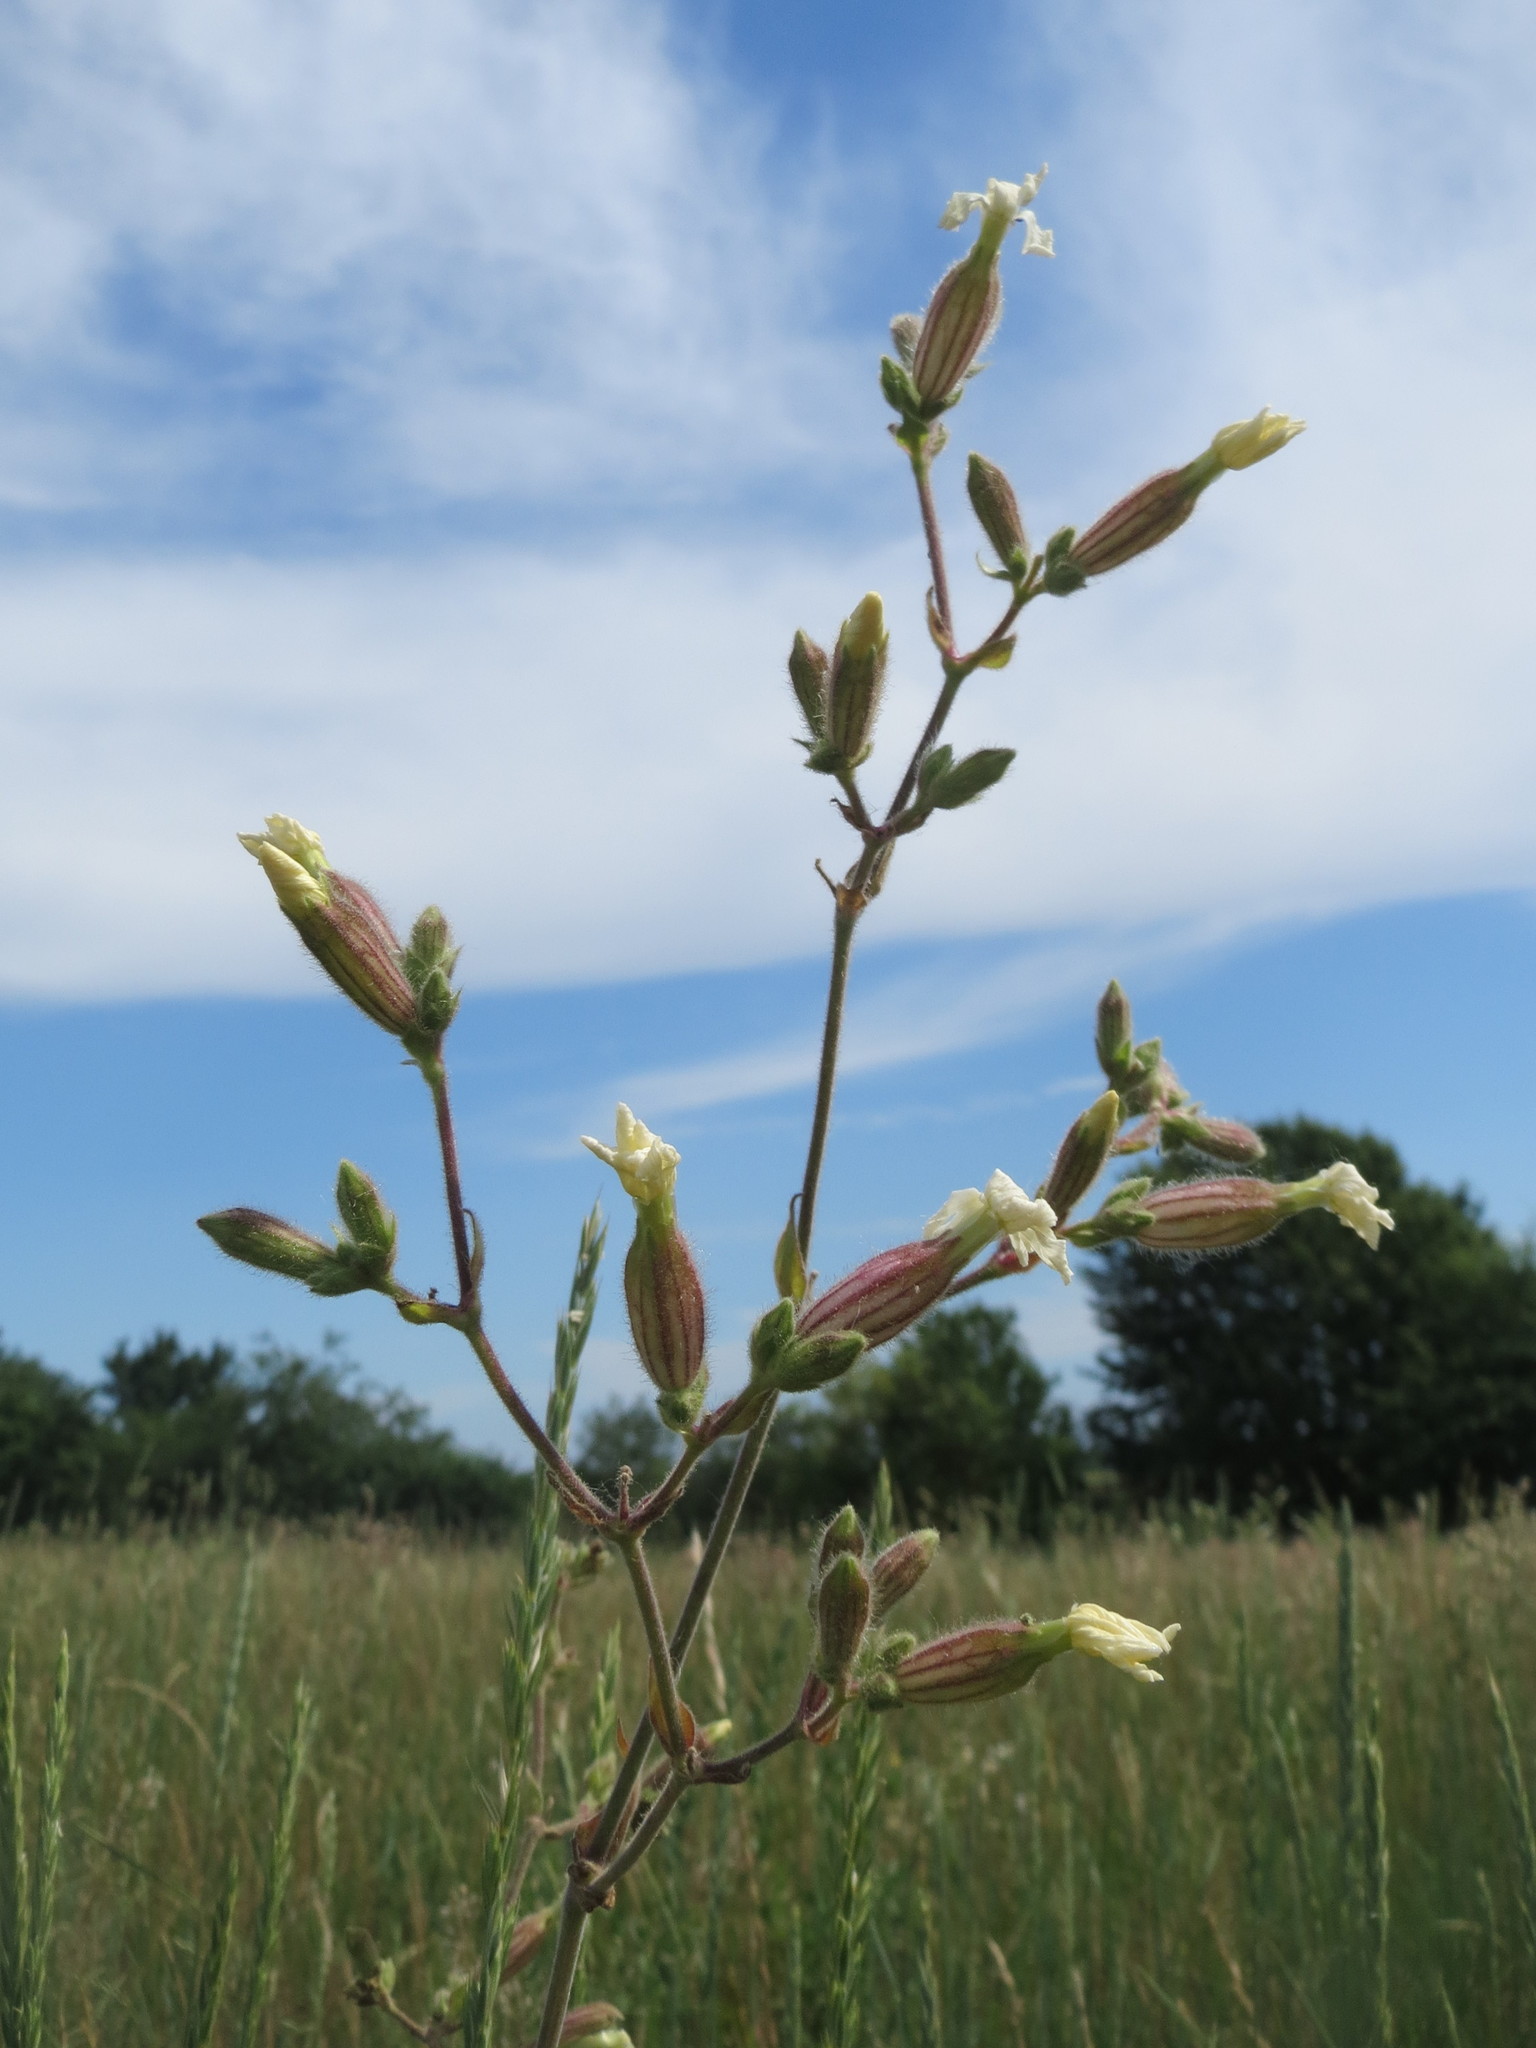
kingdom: Plantae
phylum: Tracheophyta
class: Magnoliopsida
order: Caryophyllales
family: Caryophyllaceae
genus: Silene
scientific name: Silene latifolia
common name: White campion
